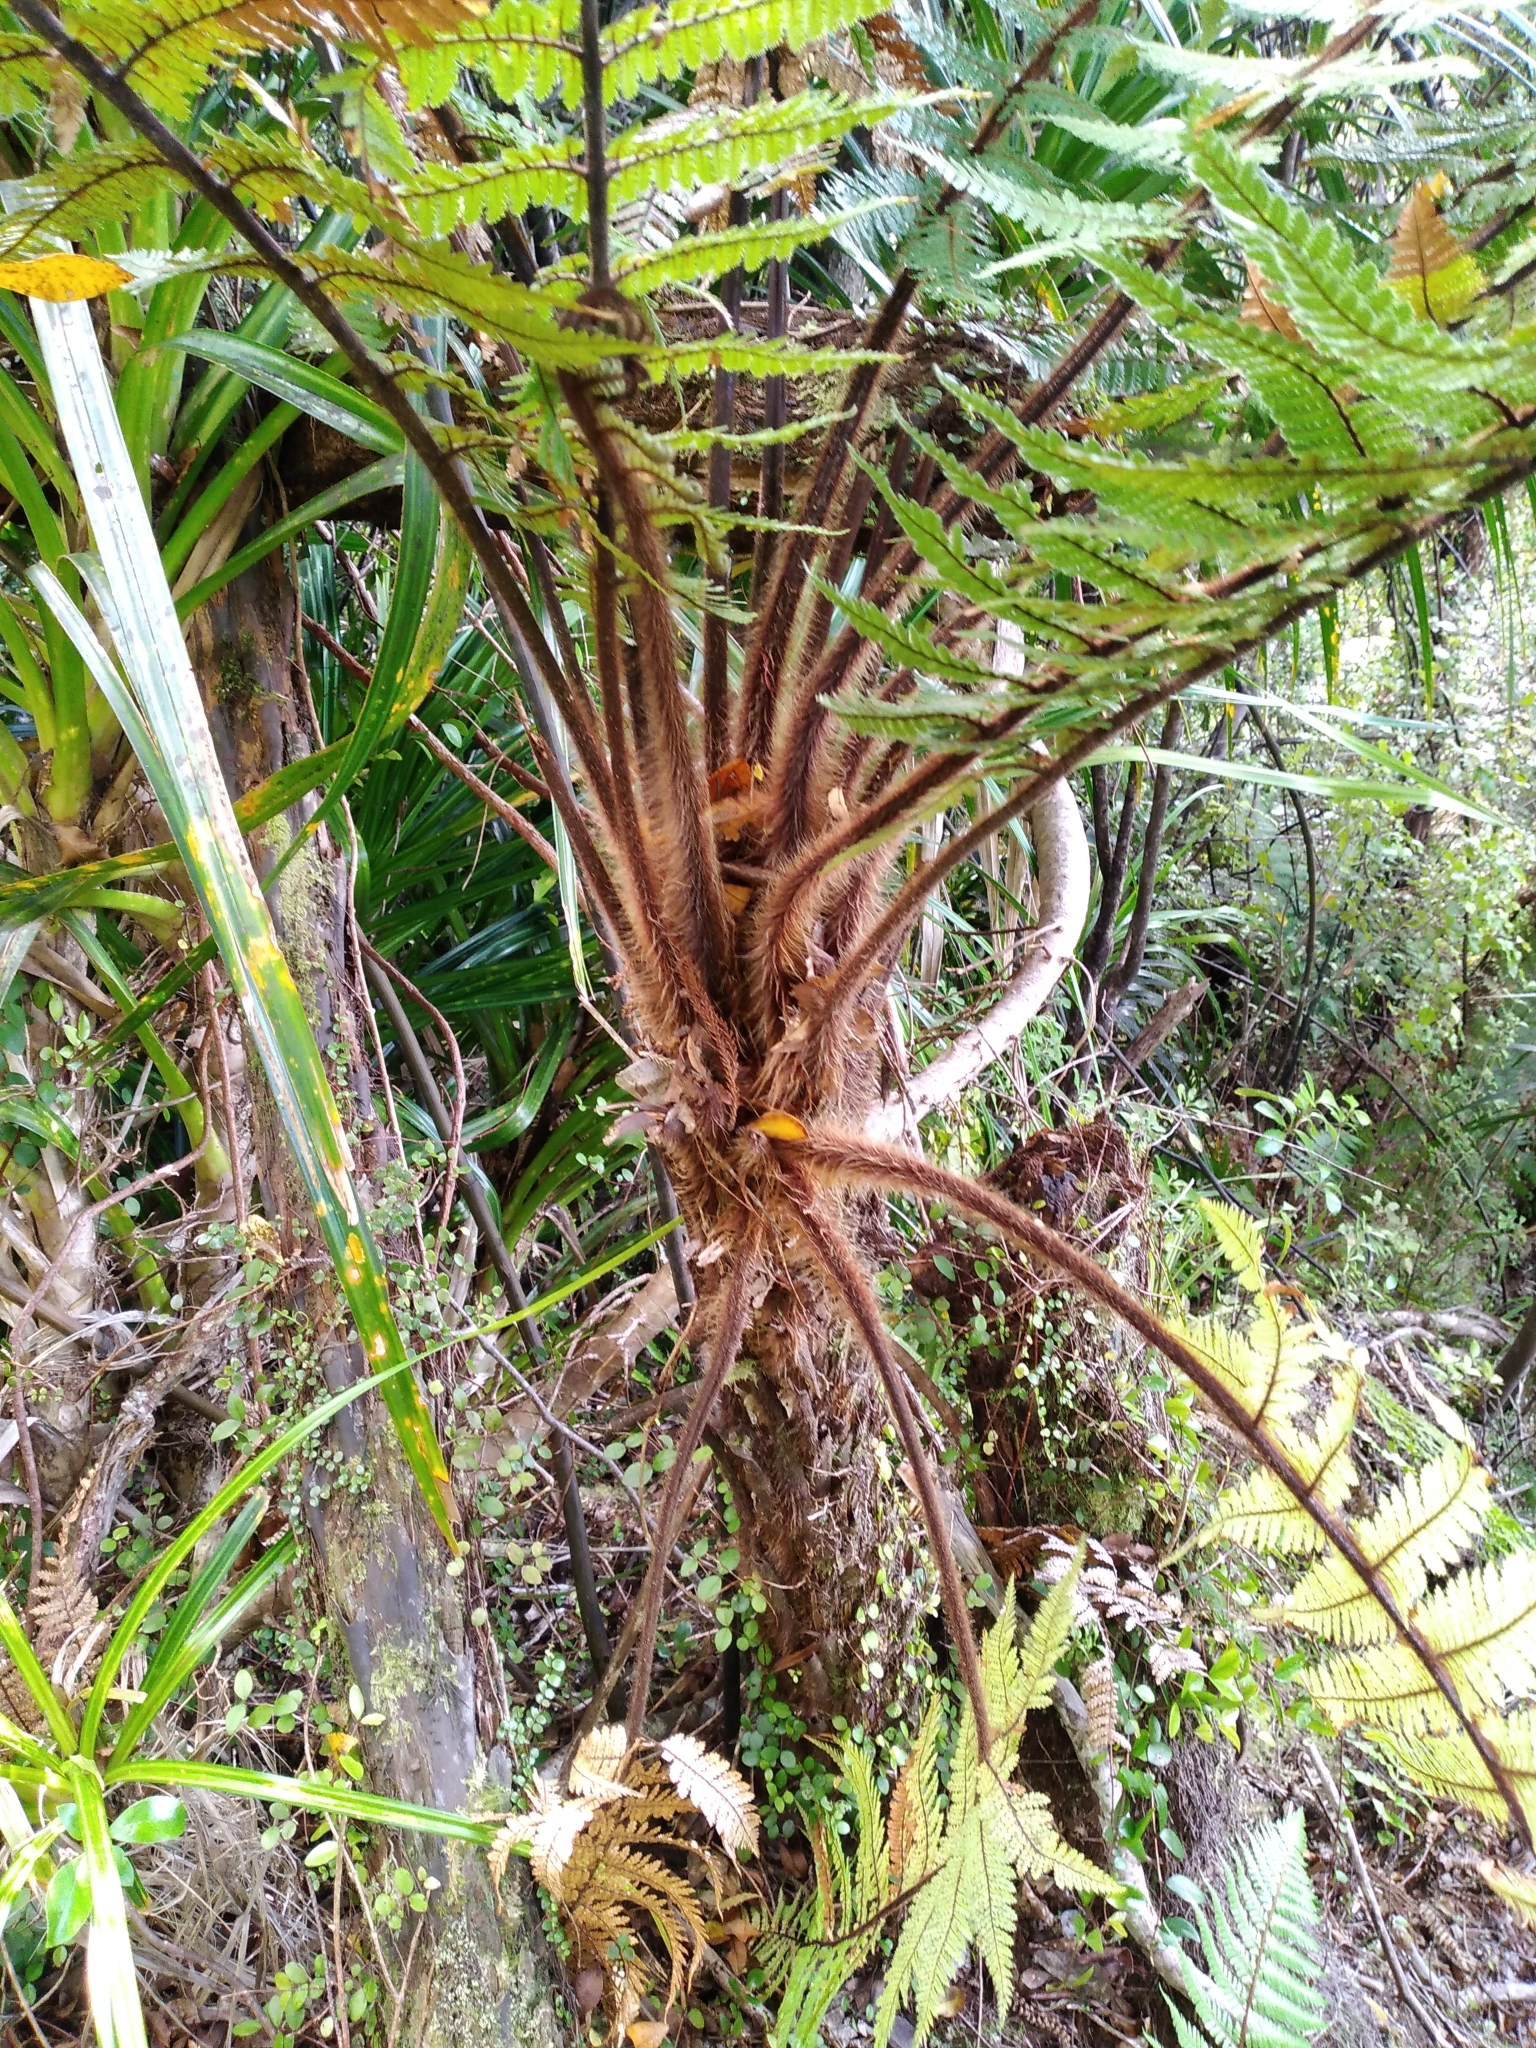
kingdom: Plantae
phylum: Tracheophyta
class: Polypodiopsida
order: Cyatheales
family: Dicksoniaceae
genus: Dicksonia
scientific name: Dicksonia squarrosa
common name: Hard treefern
